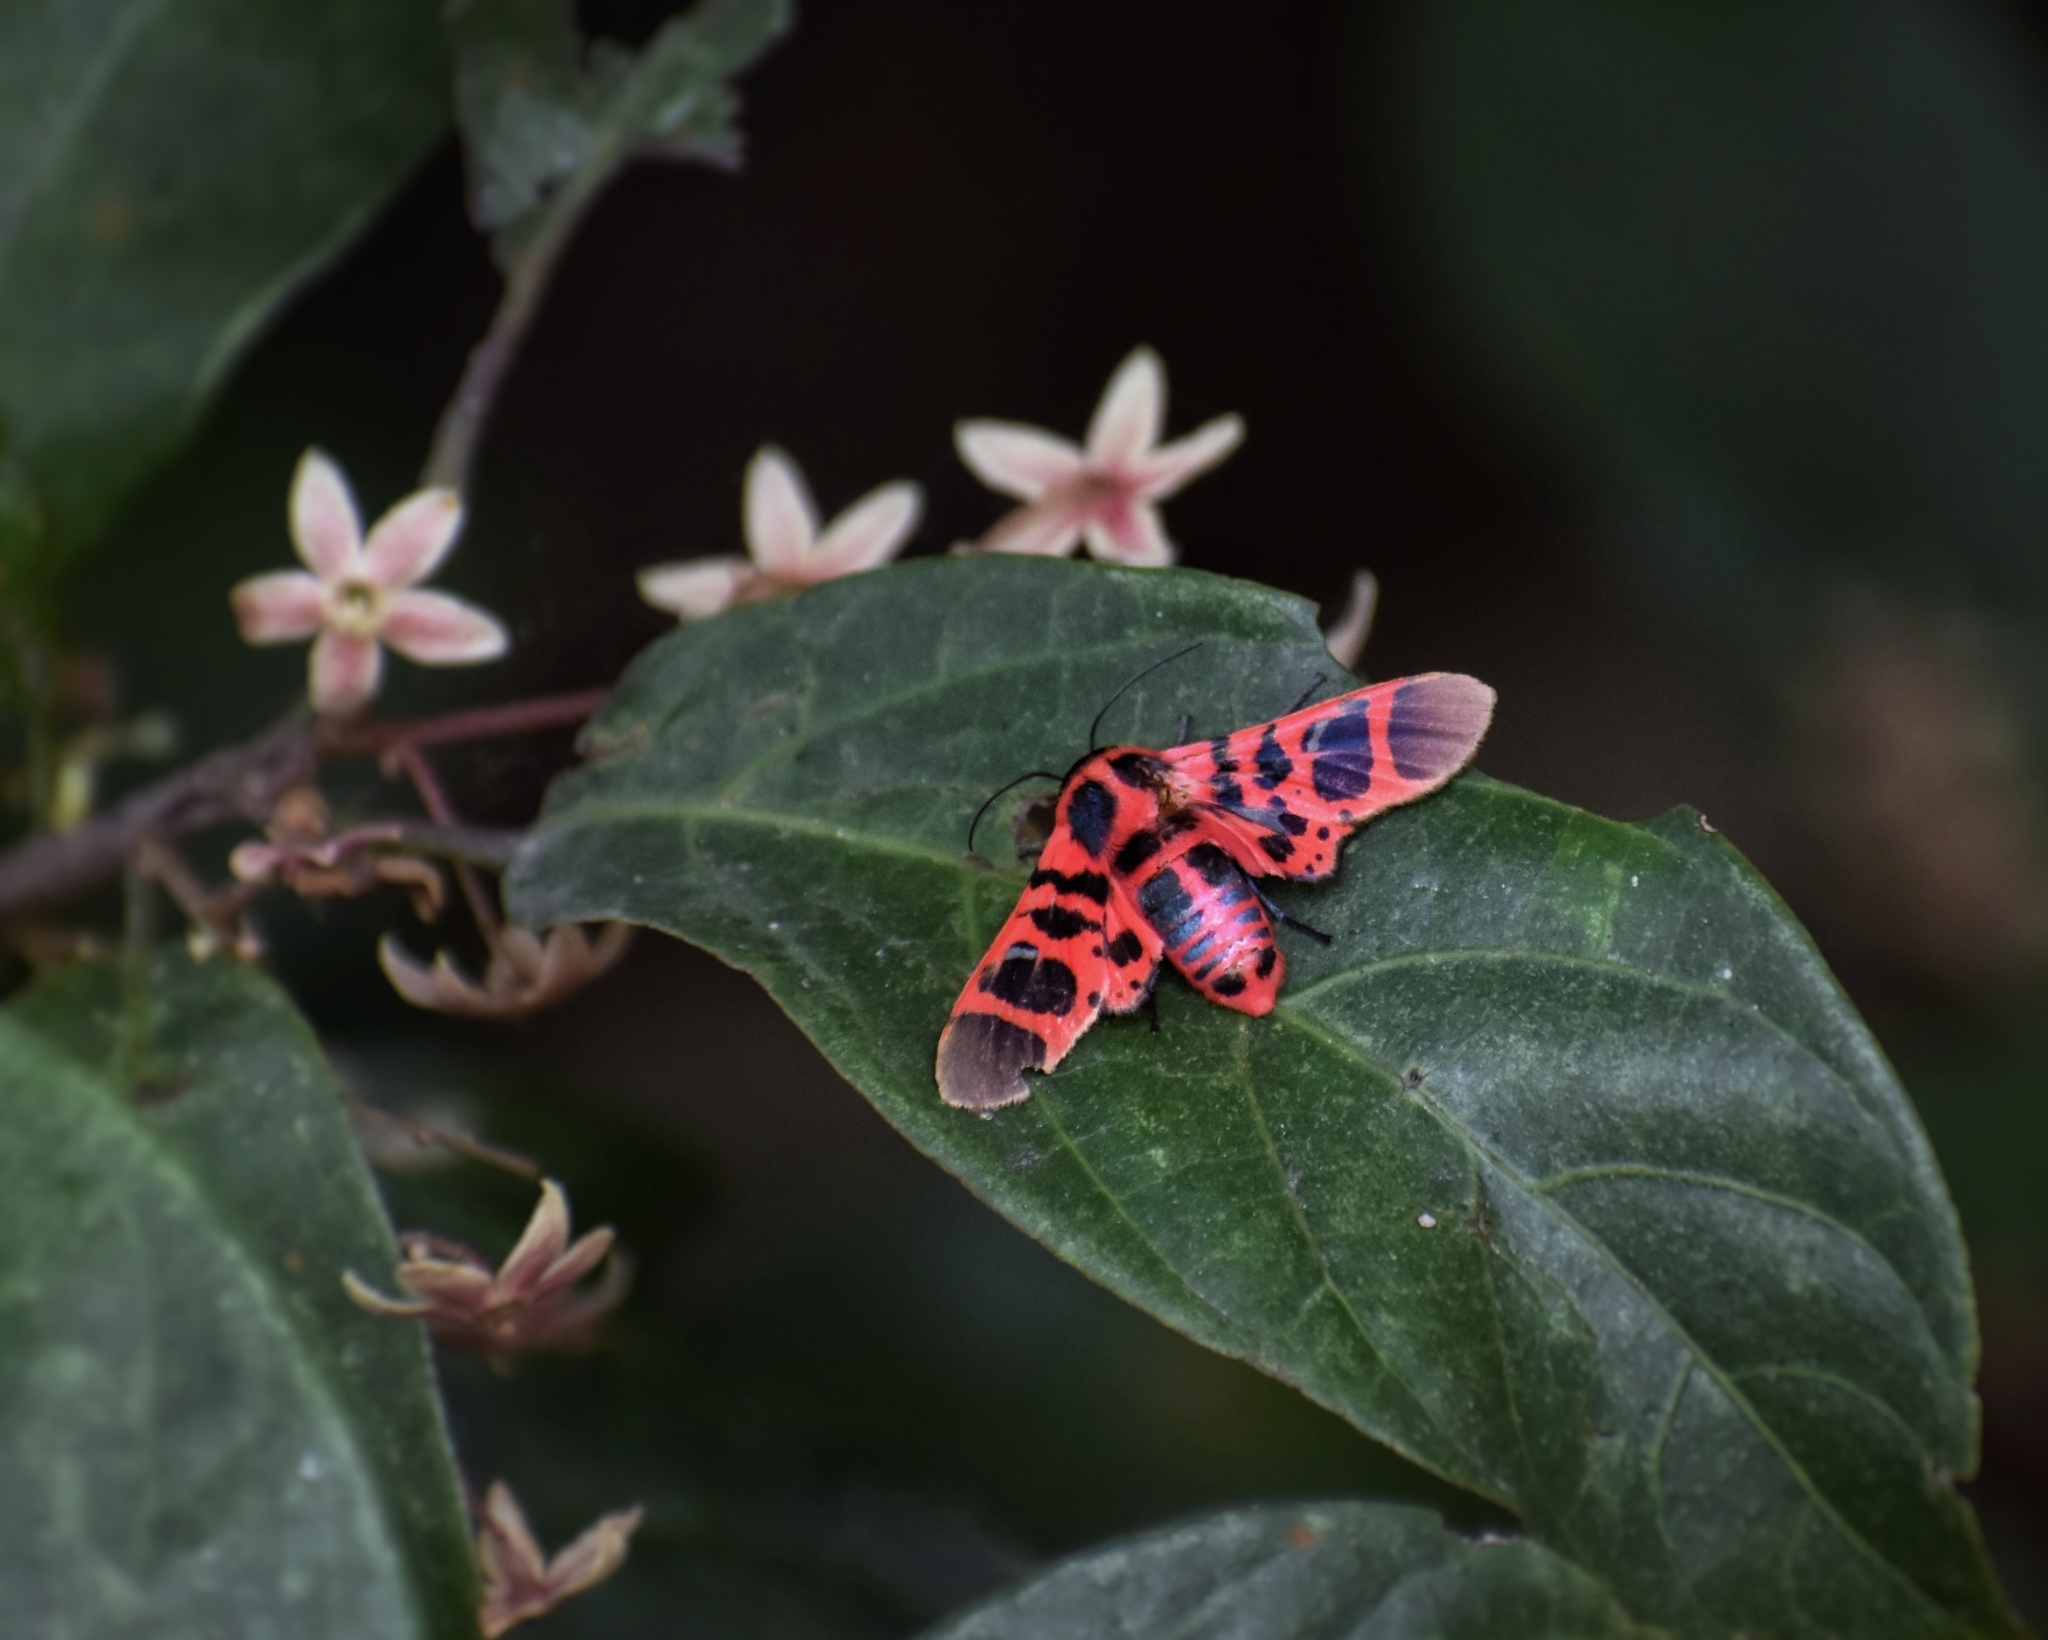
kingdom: Animalia
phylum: Arthropoda
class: Insecta
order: Lepidoptera
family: Thyrididae
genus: Glanycus
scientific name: Glanycus insolitus
